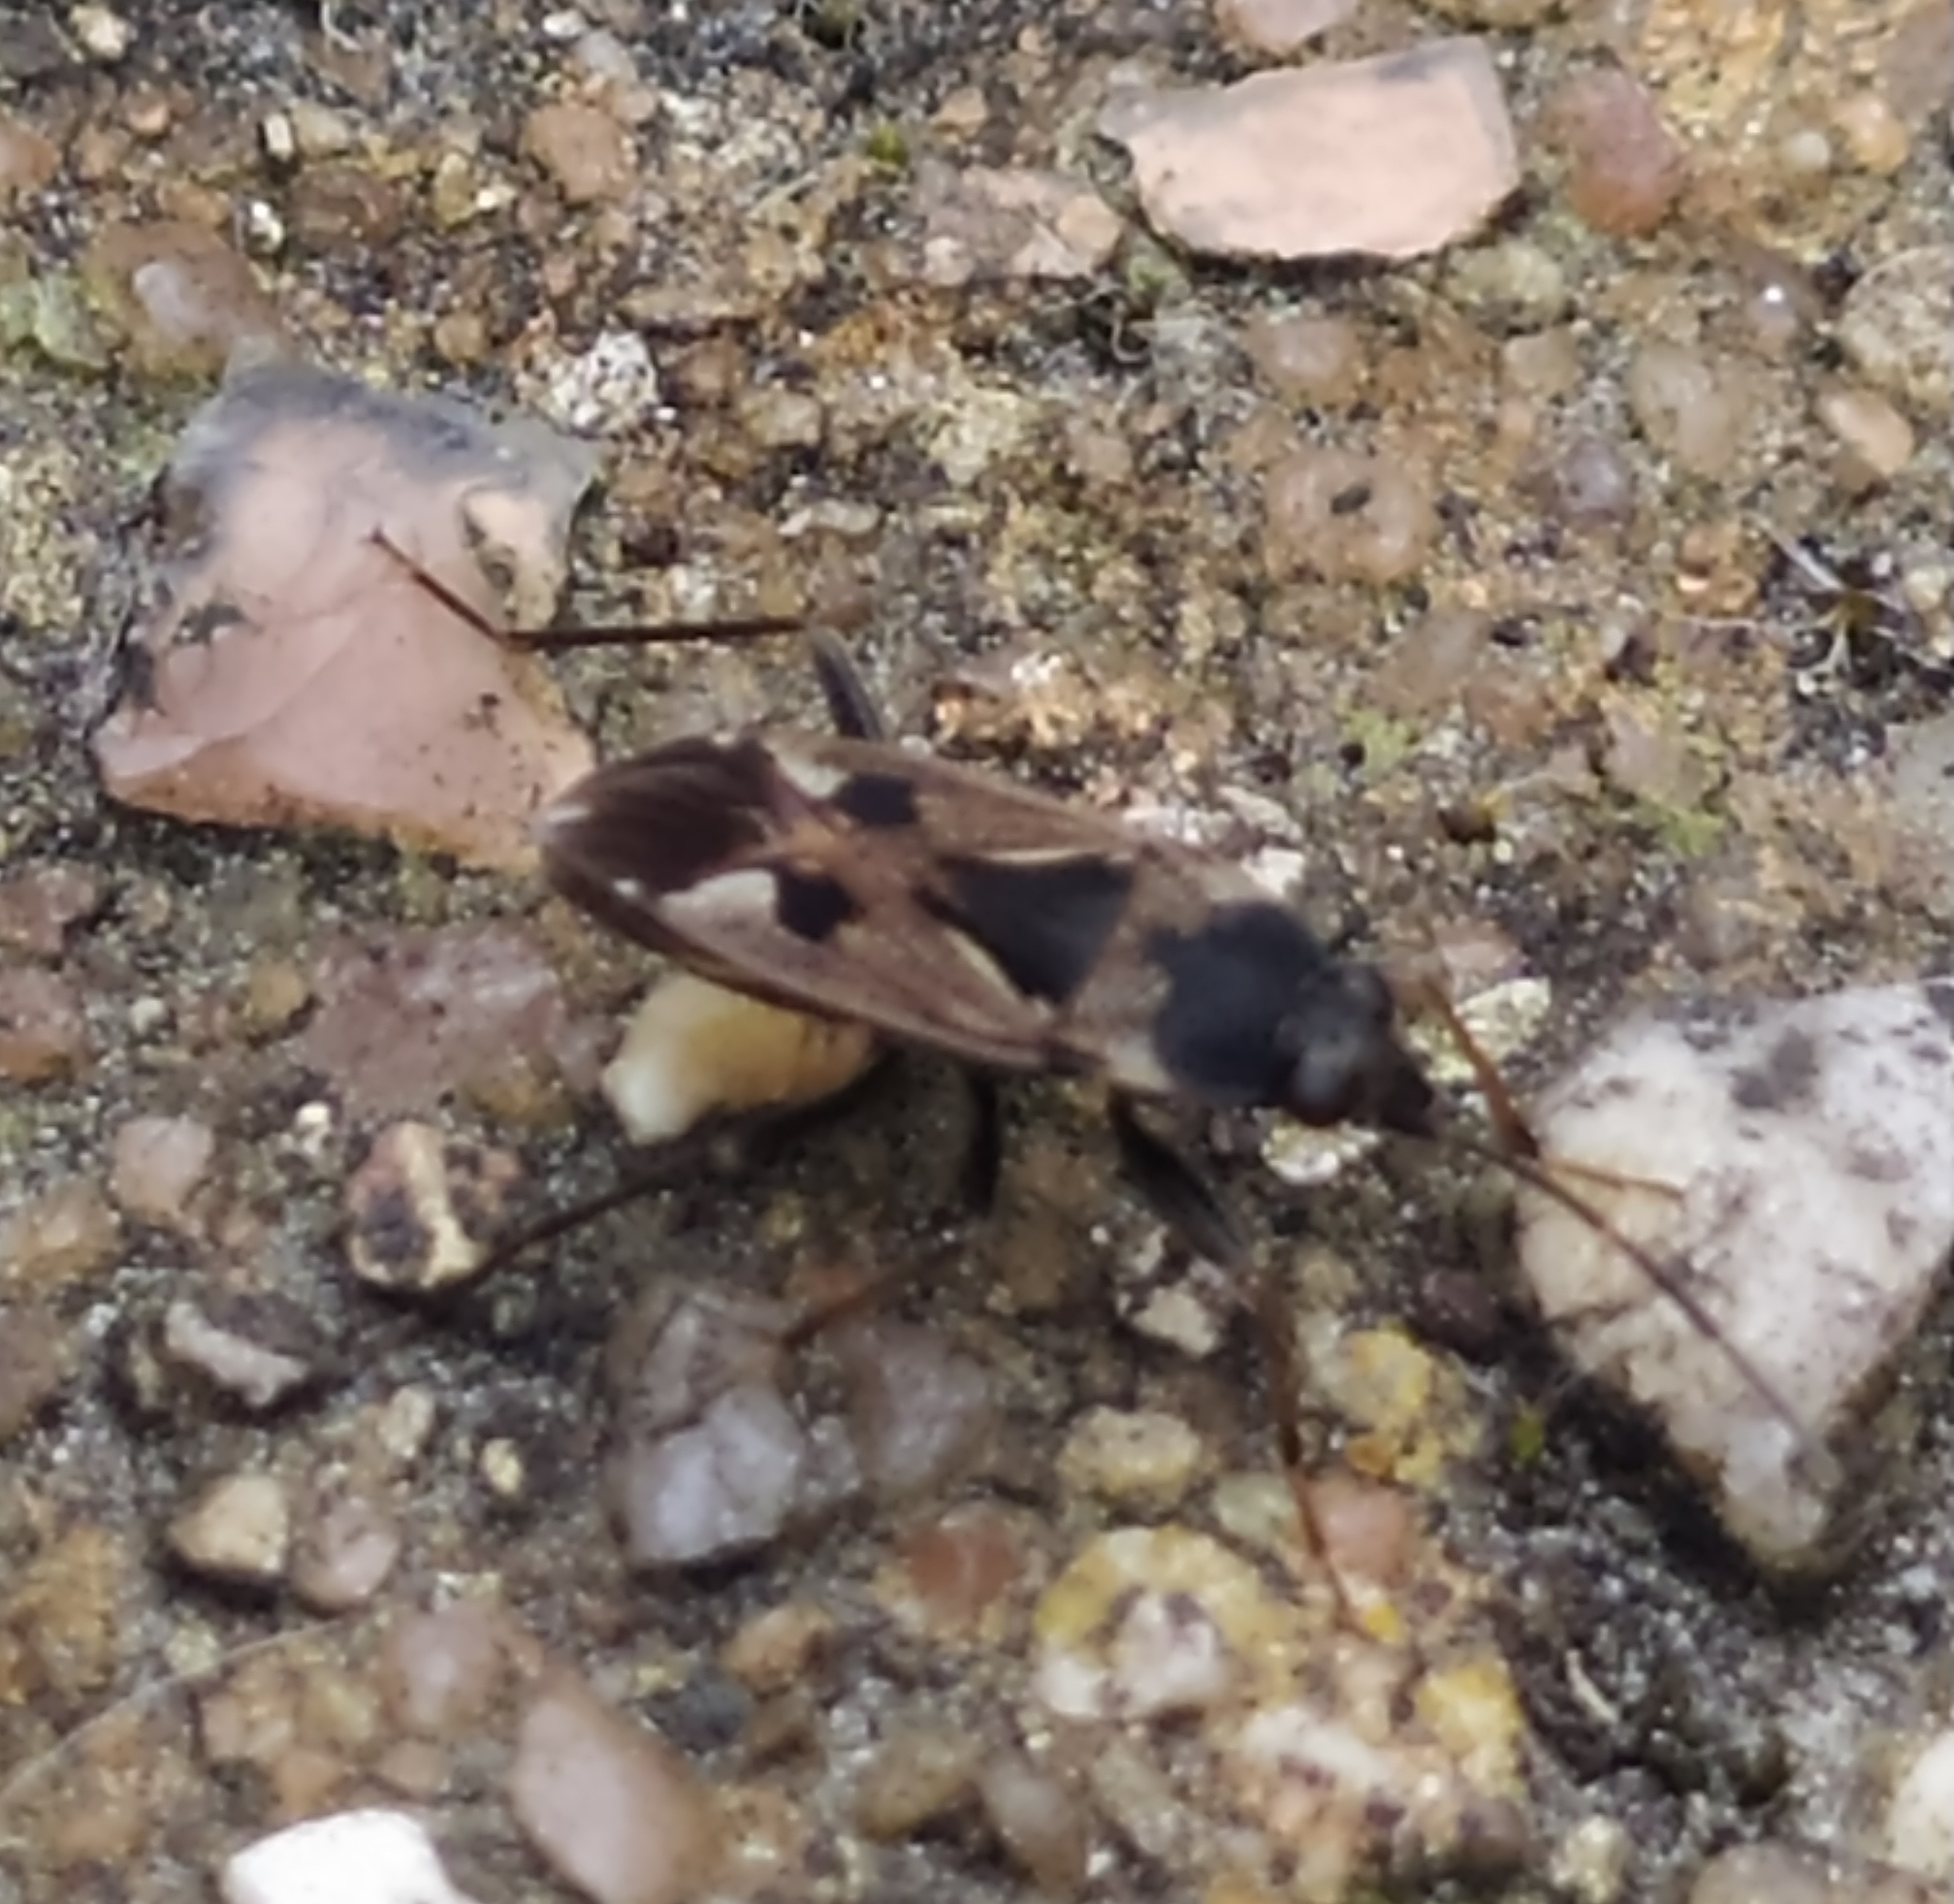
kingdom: Animalia
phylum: Arthropoda
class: Insecta
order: Hemiptera
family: Rhyparochromidae
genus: Rhyparochromus
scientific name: Rhyparochromus vulgaris
